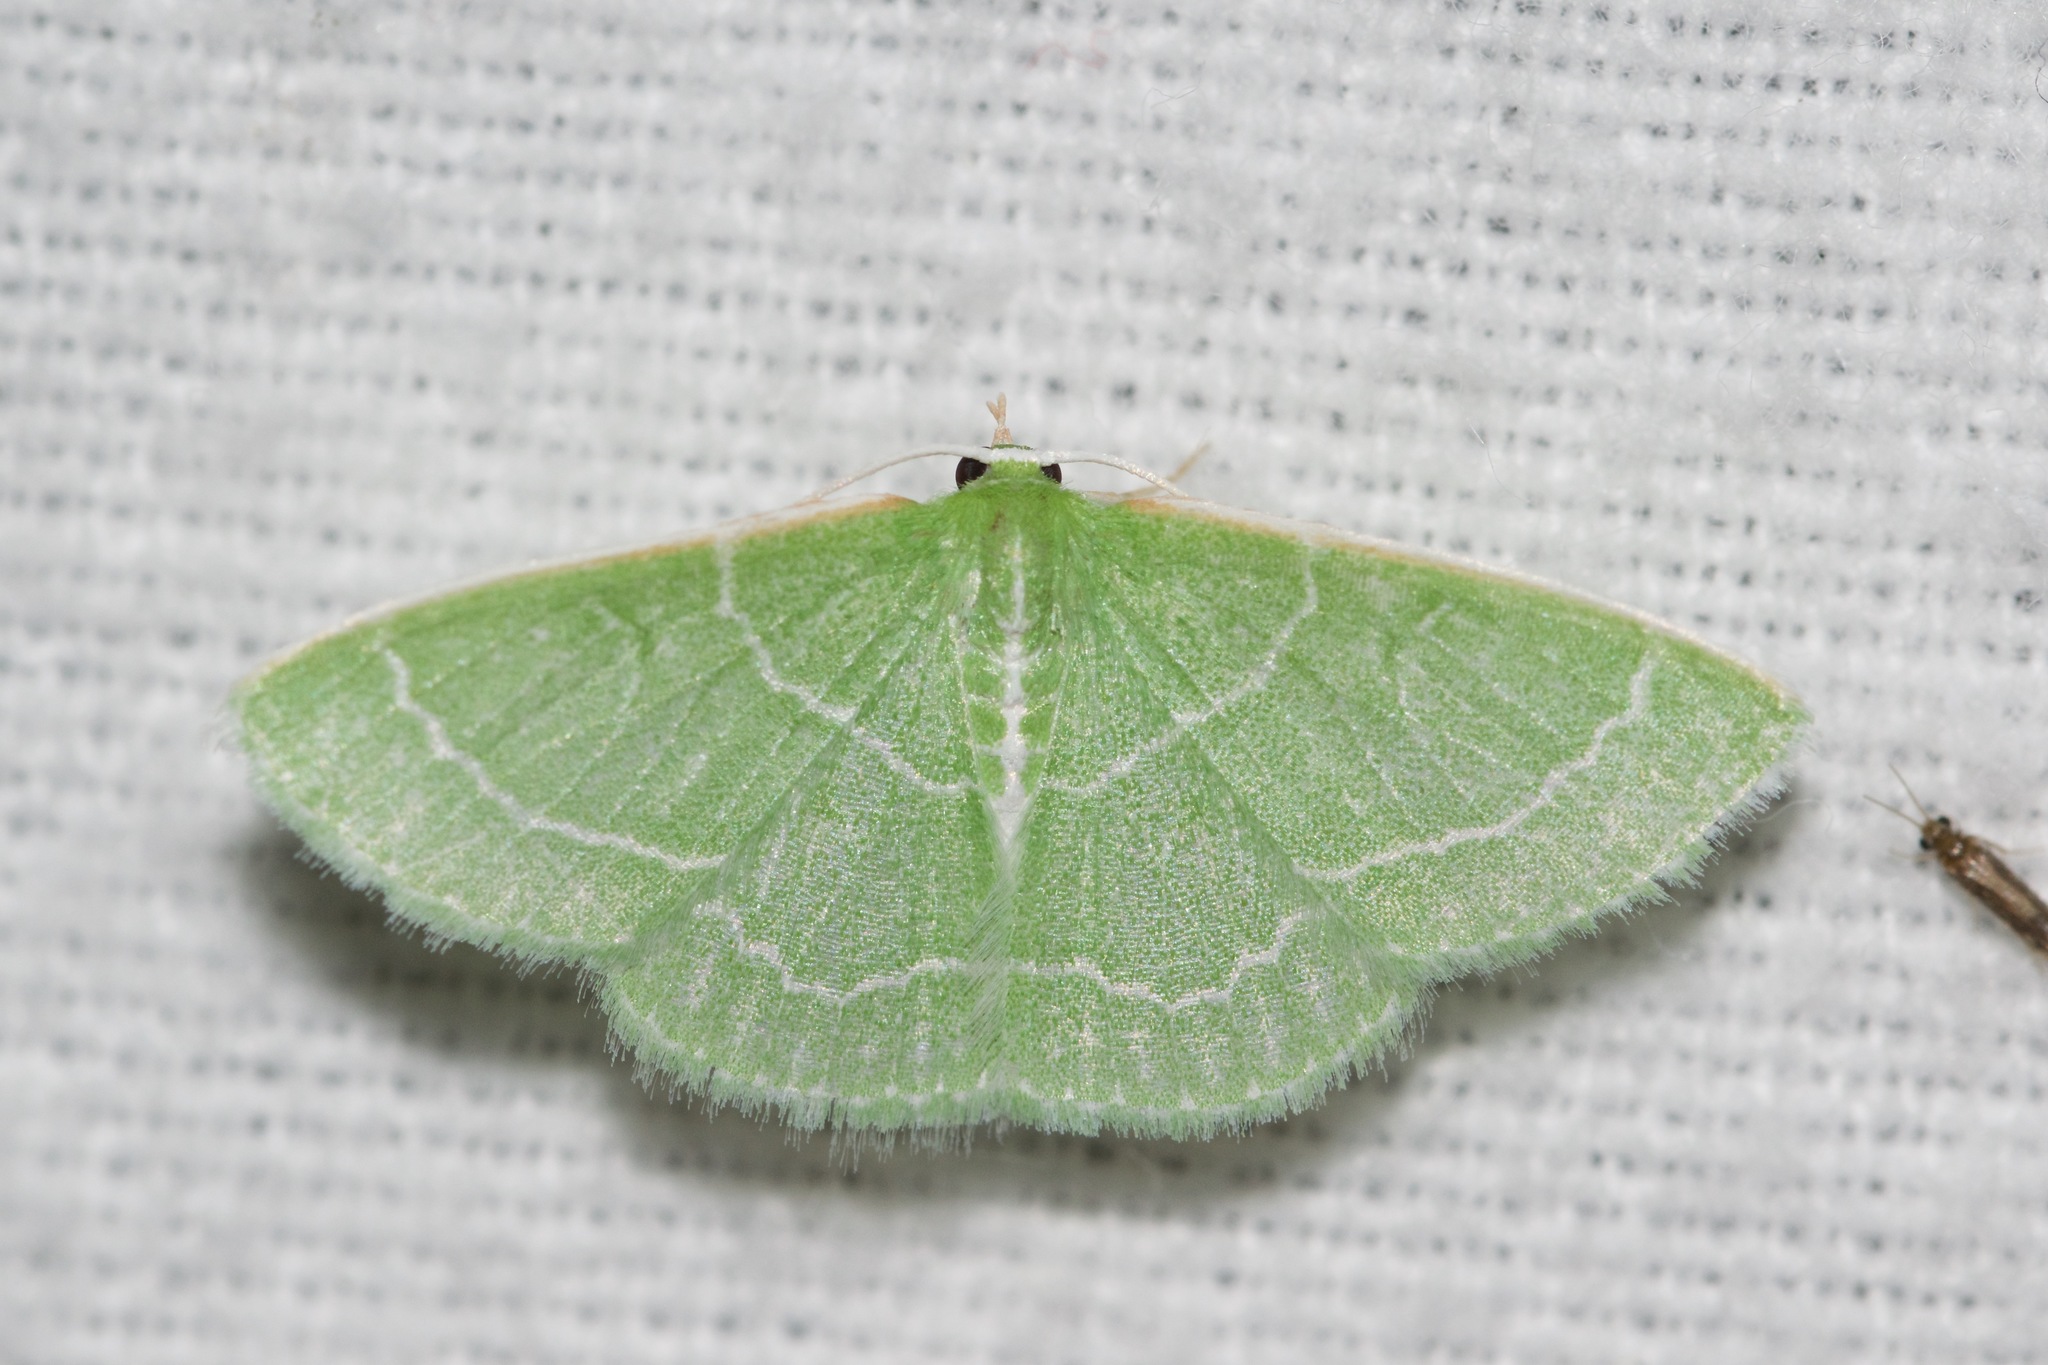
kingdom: Animalia
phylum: Arthropoda
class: Insecta
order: Lepidoptera
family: Geometridae
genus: Synchlora
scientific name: Synchlora aerata
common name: Wavy-lined emerald
